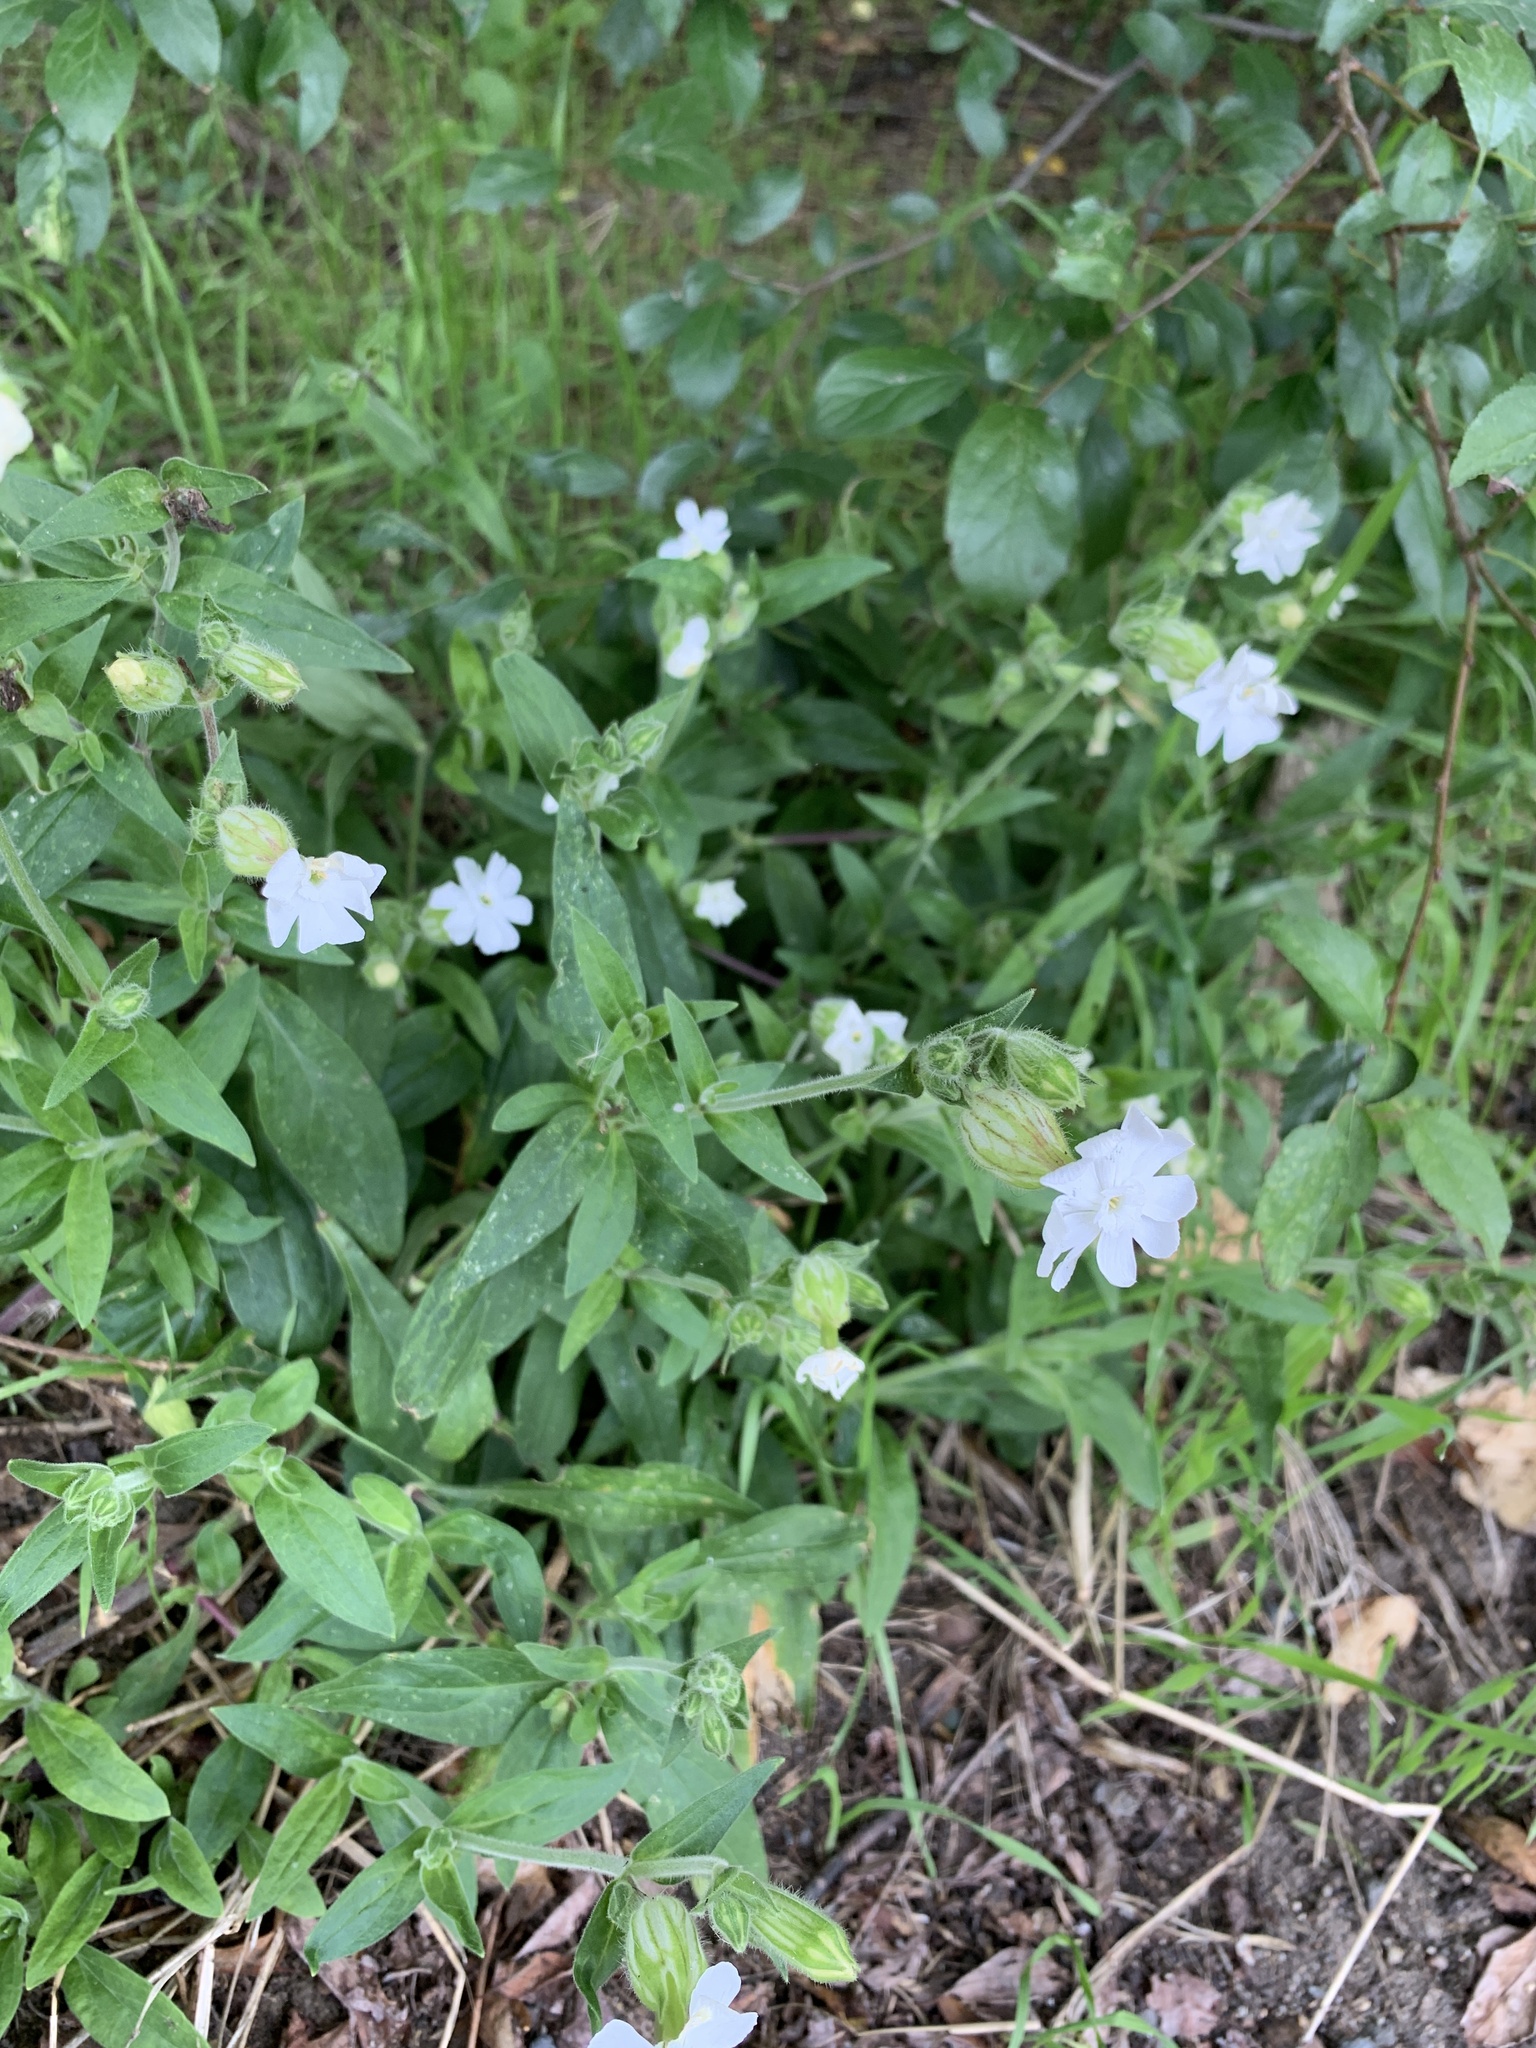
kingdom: Plantae
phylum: Tracheophyta
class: Magnoliopsida
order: Caryophyllales
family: Caryophyllaceae
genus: Silene
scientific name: Silene latifolia
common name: White campion
